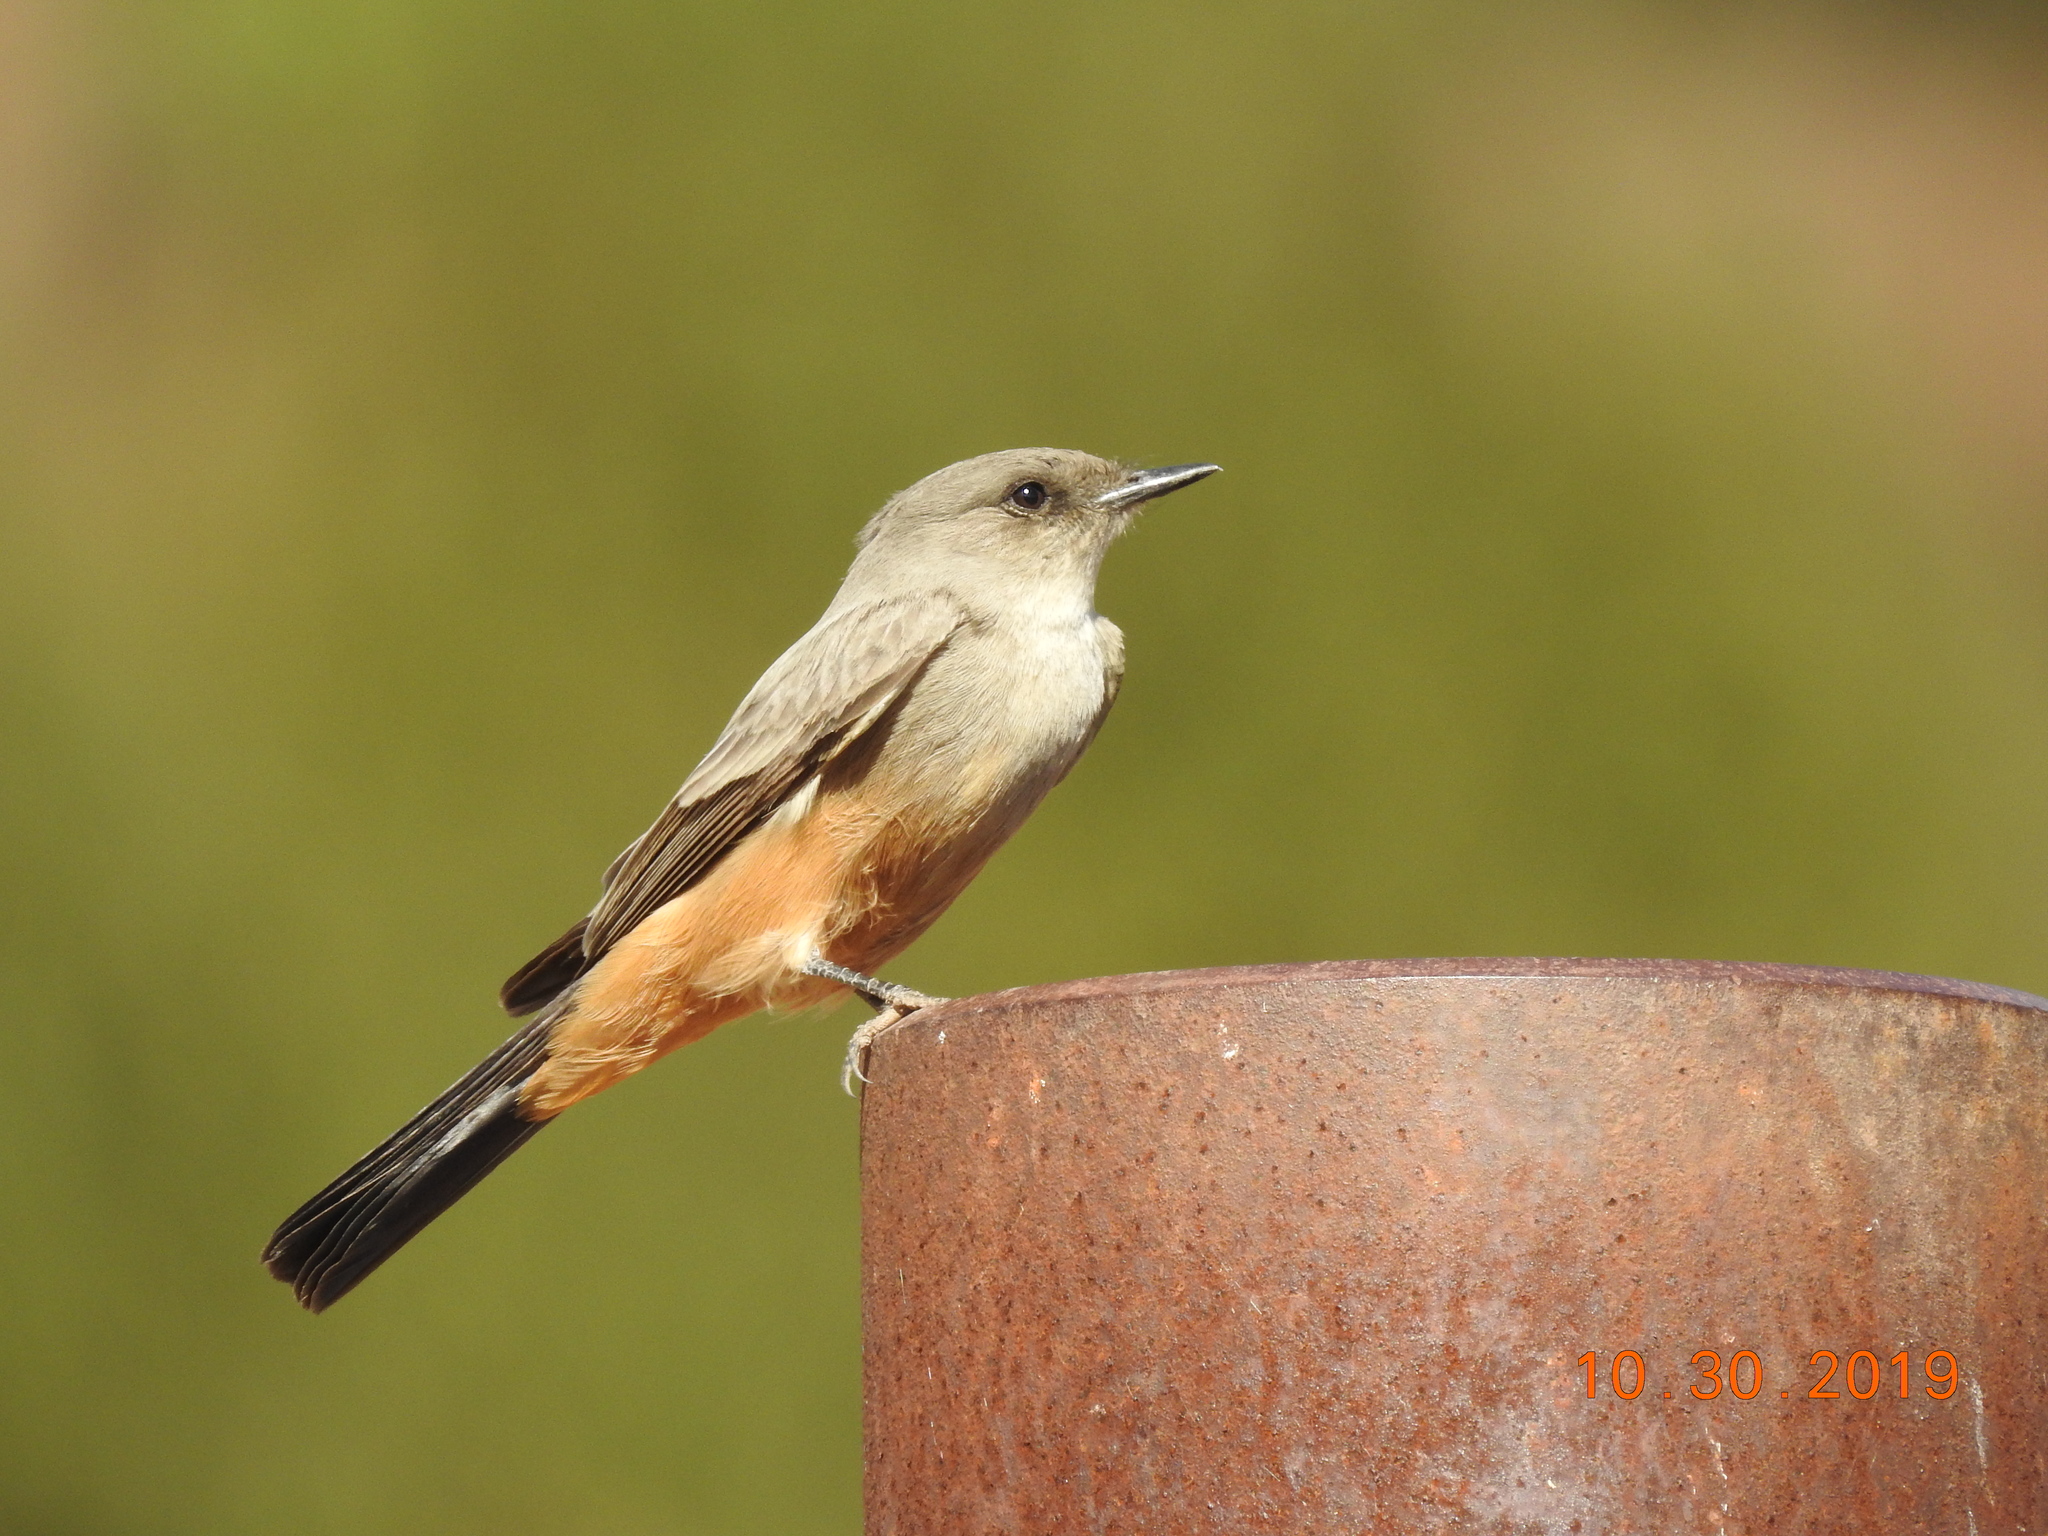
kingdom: Animalia
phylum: Chordata
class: Aves
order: Passeriformes
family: Tyrannidae
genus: Sayornis
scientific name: Sayornis saya
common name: Say's phoebe
